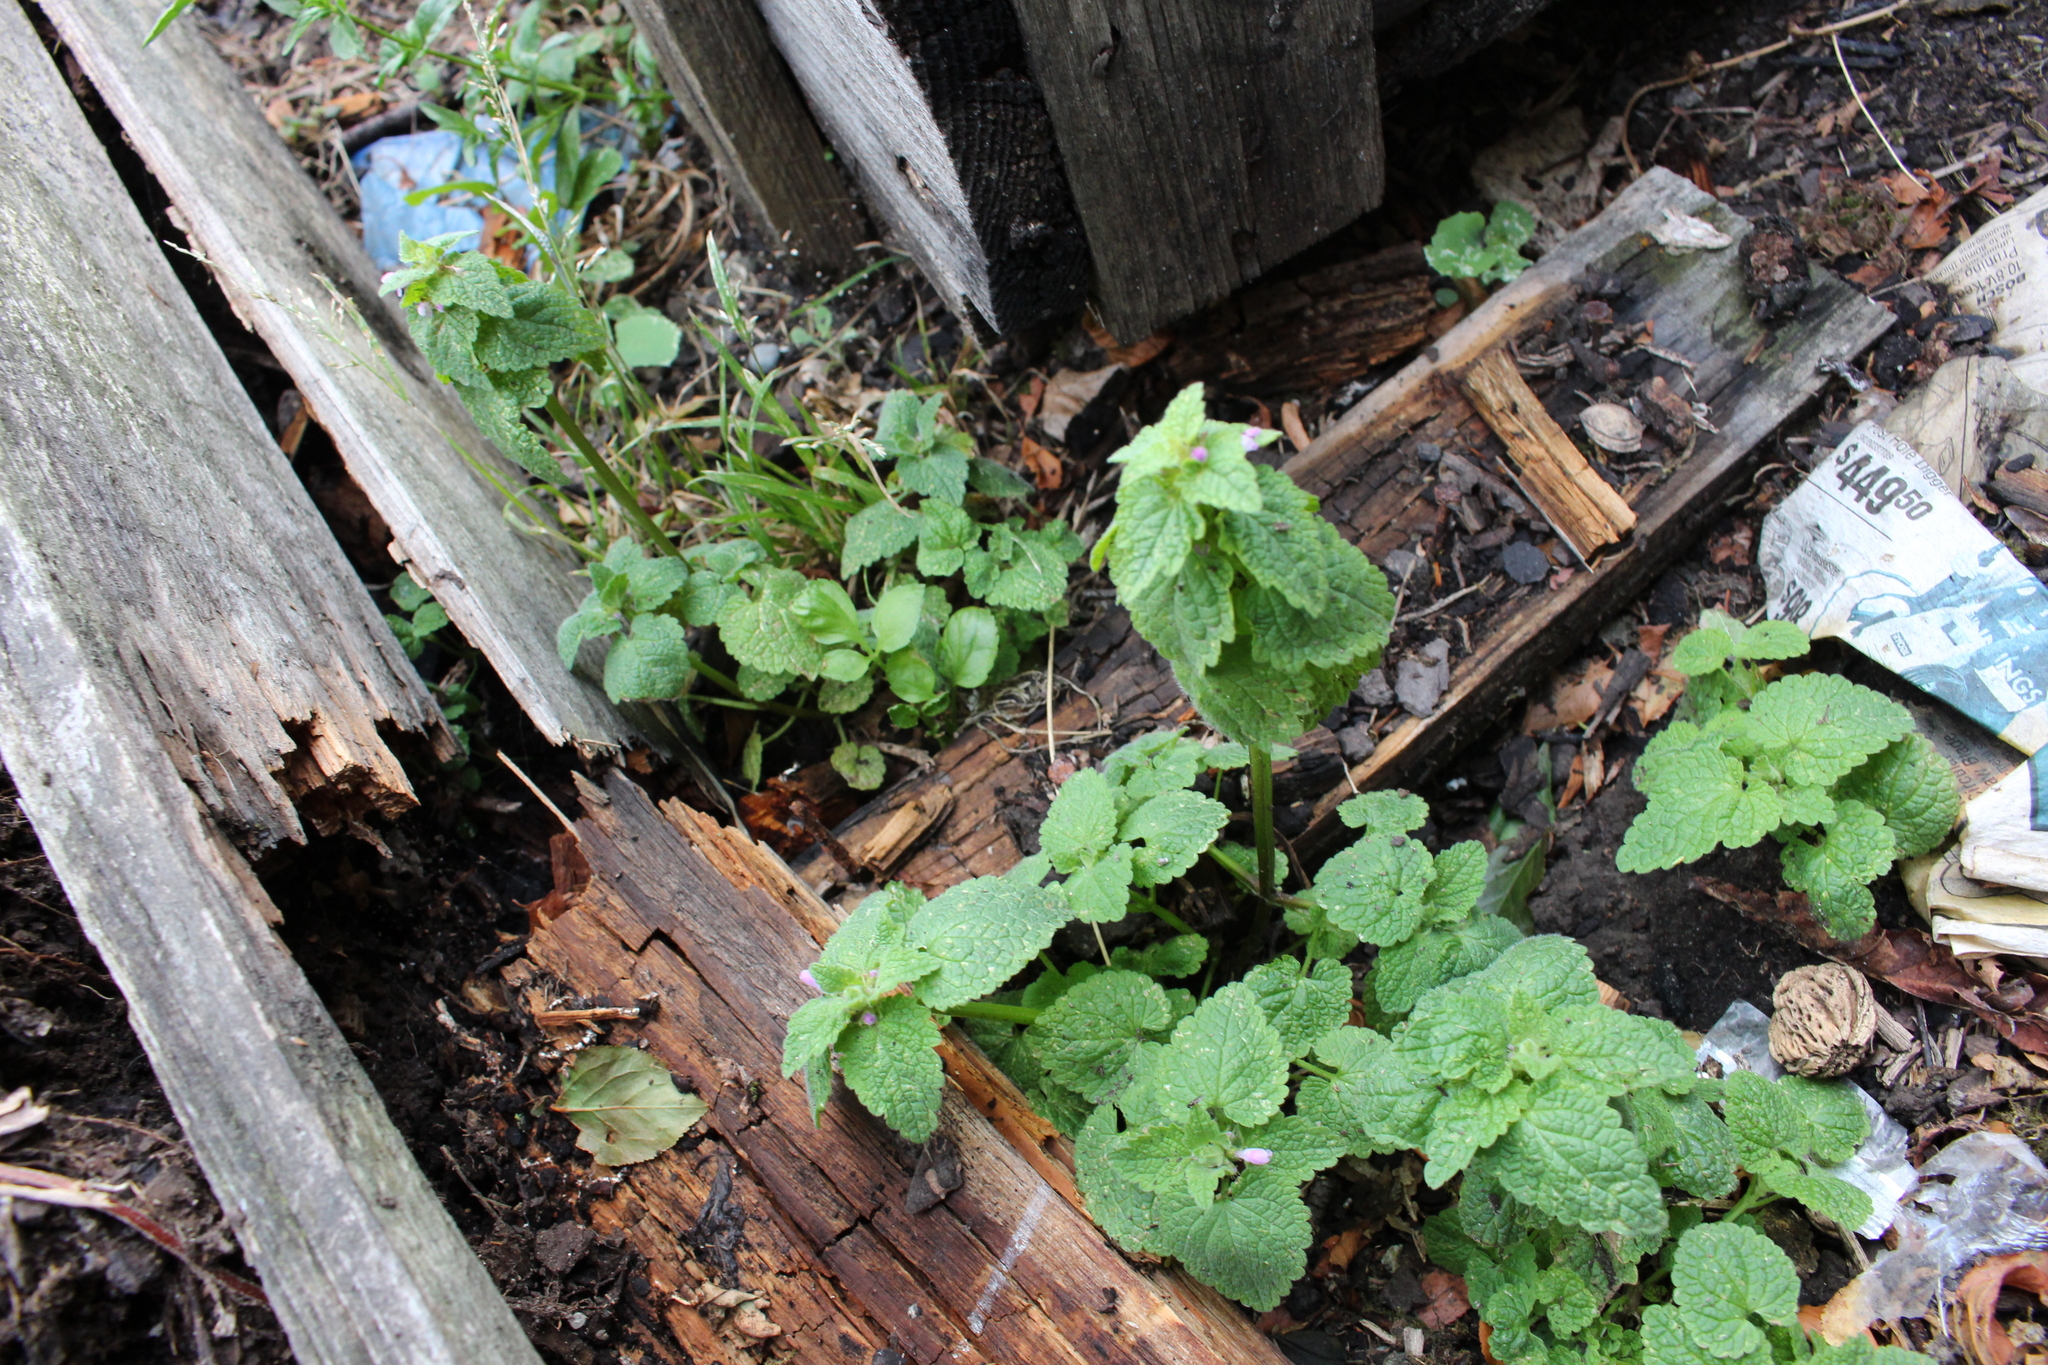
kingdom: Plantae
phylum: Tracheophyta
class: Magnoliopsida
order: Lamiales
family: Lamiaceae
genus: Lamium
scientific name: Lamium purpureum
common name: Red dead-nettle
